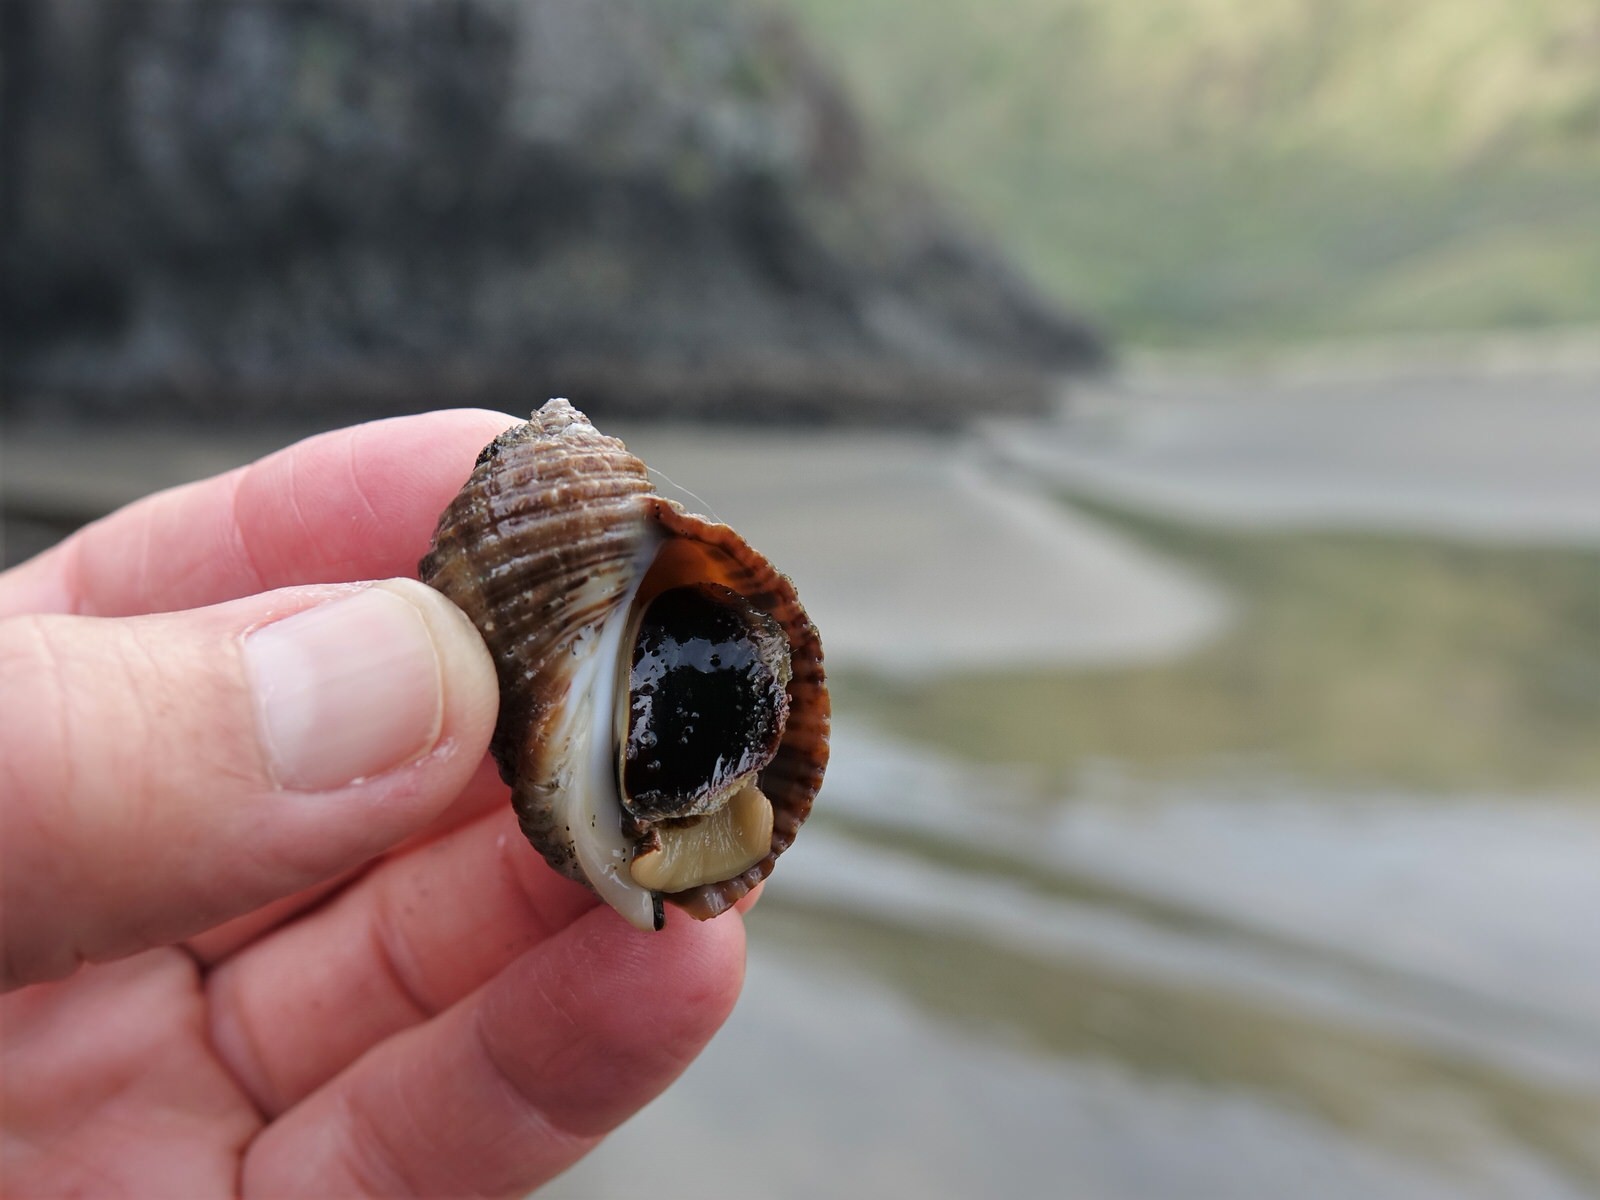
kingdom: Animalia
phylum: Mollusca
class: Gastropoda
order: Neogastropoda
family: Muricidae
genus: Dicathais
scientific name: Dicathais orbita
